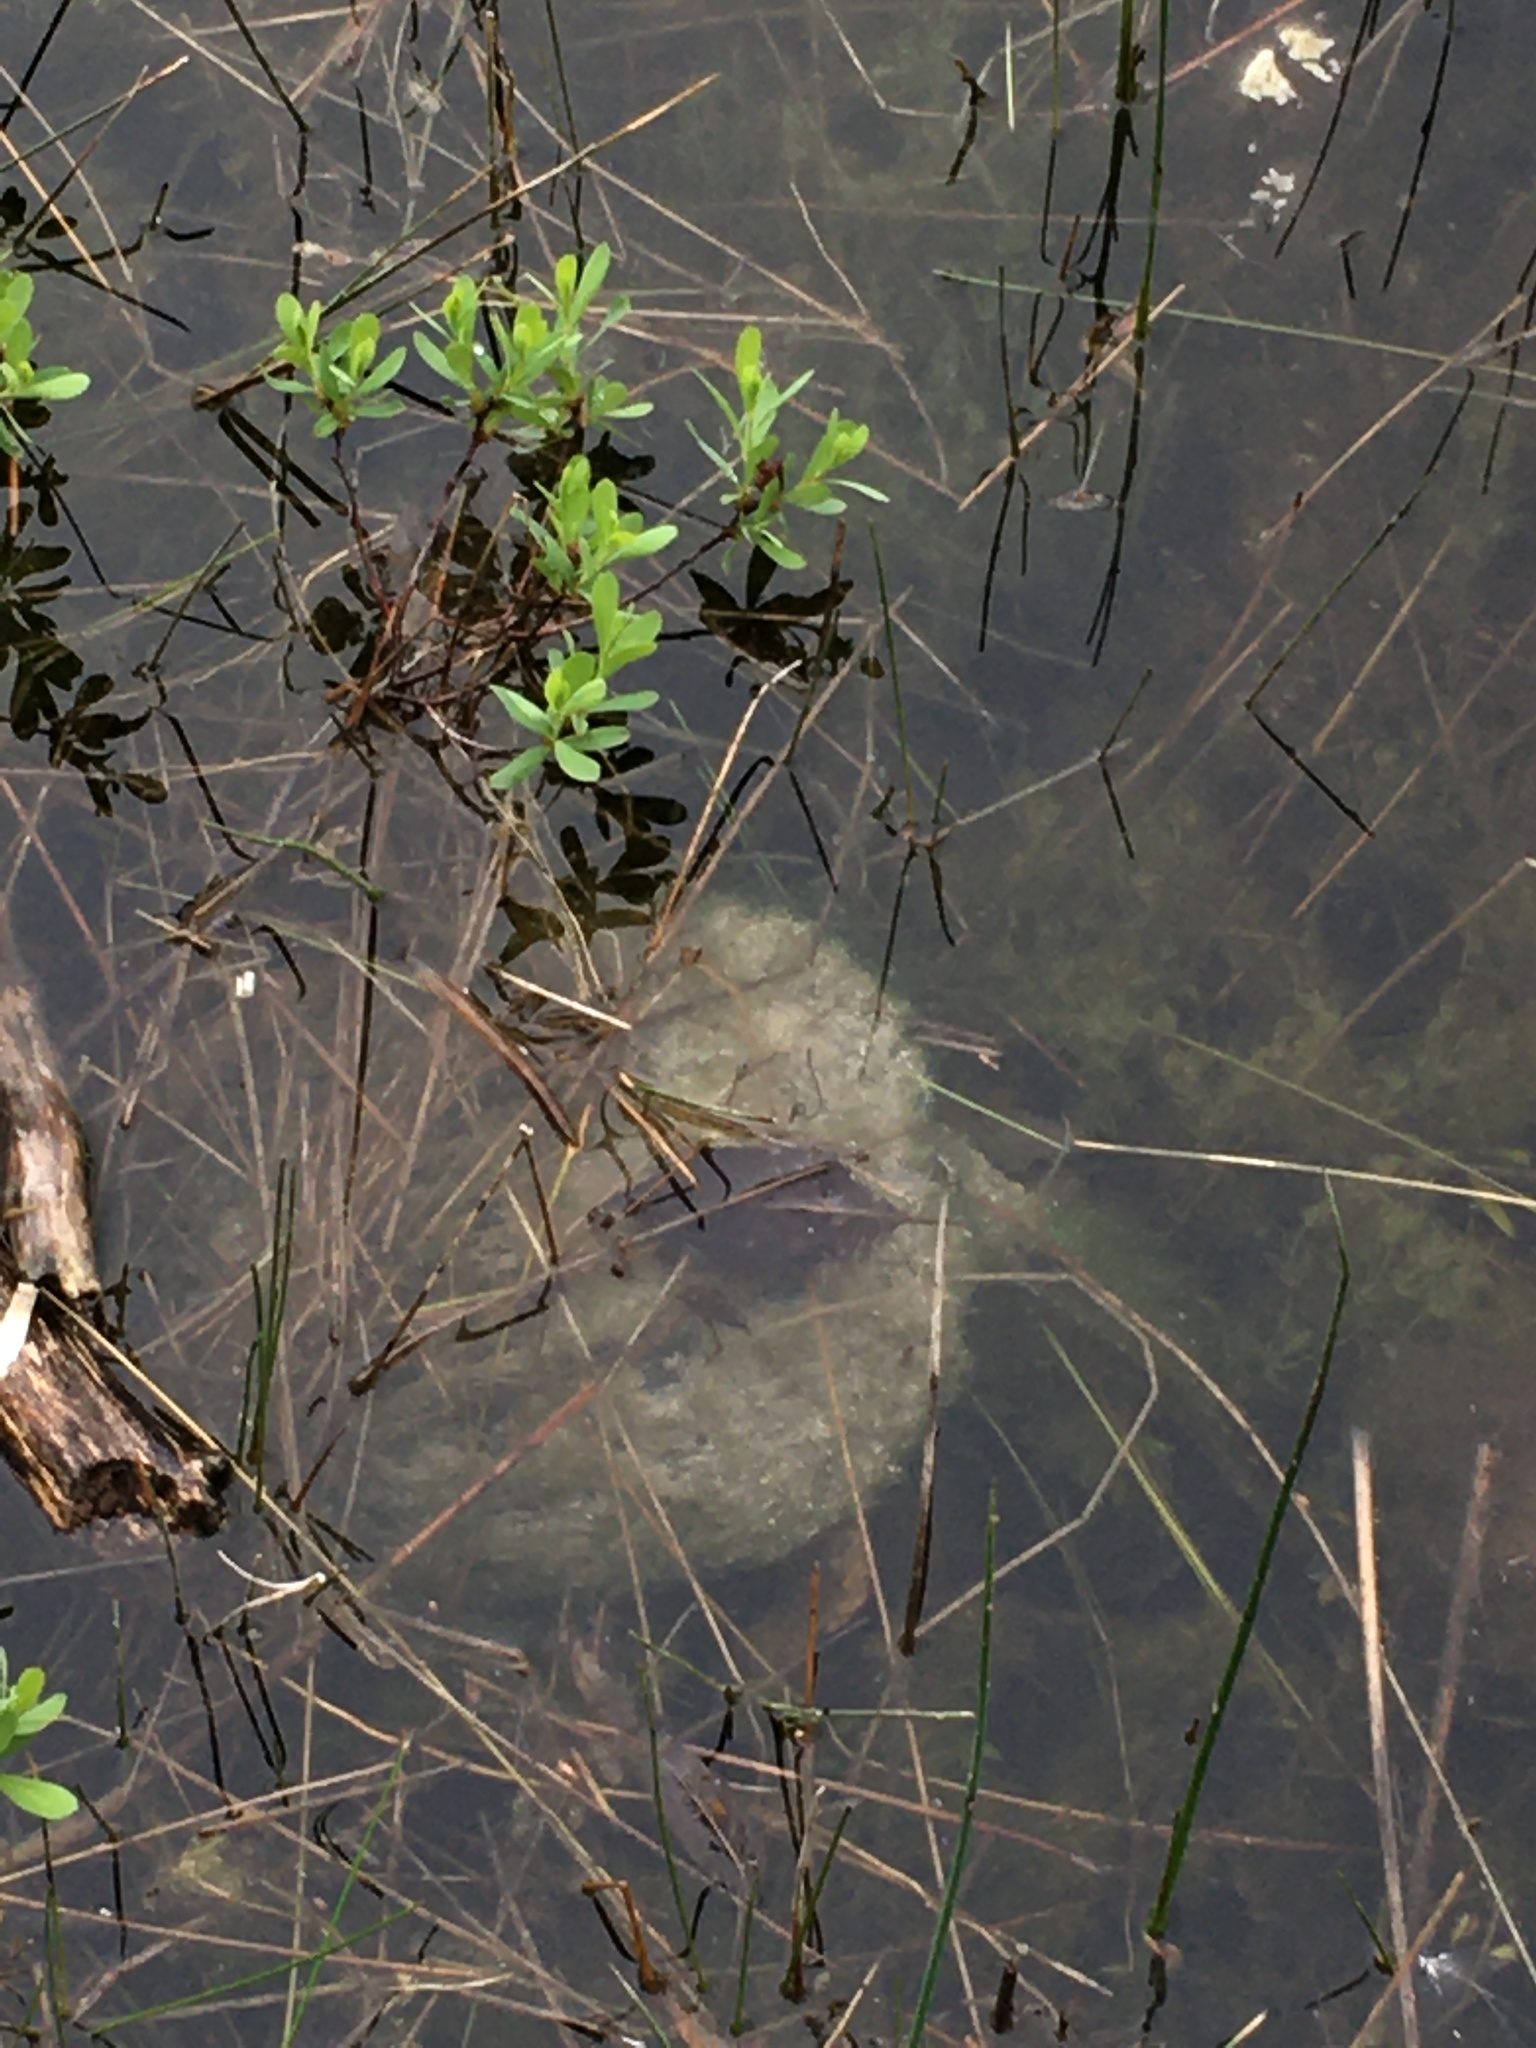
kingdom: Animalia
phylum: Chordata
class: Testudines
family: Chelydridae
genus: Chelydra
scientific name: Chelydra serpentina
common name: Common snapping turtle
